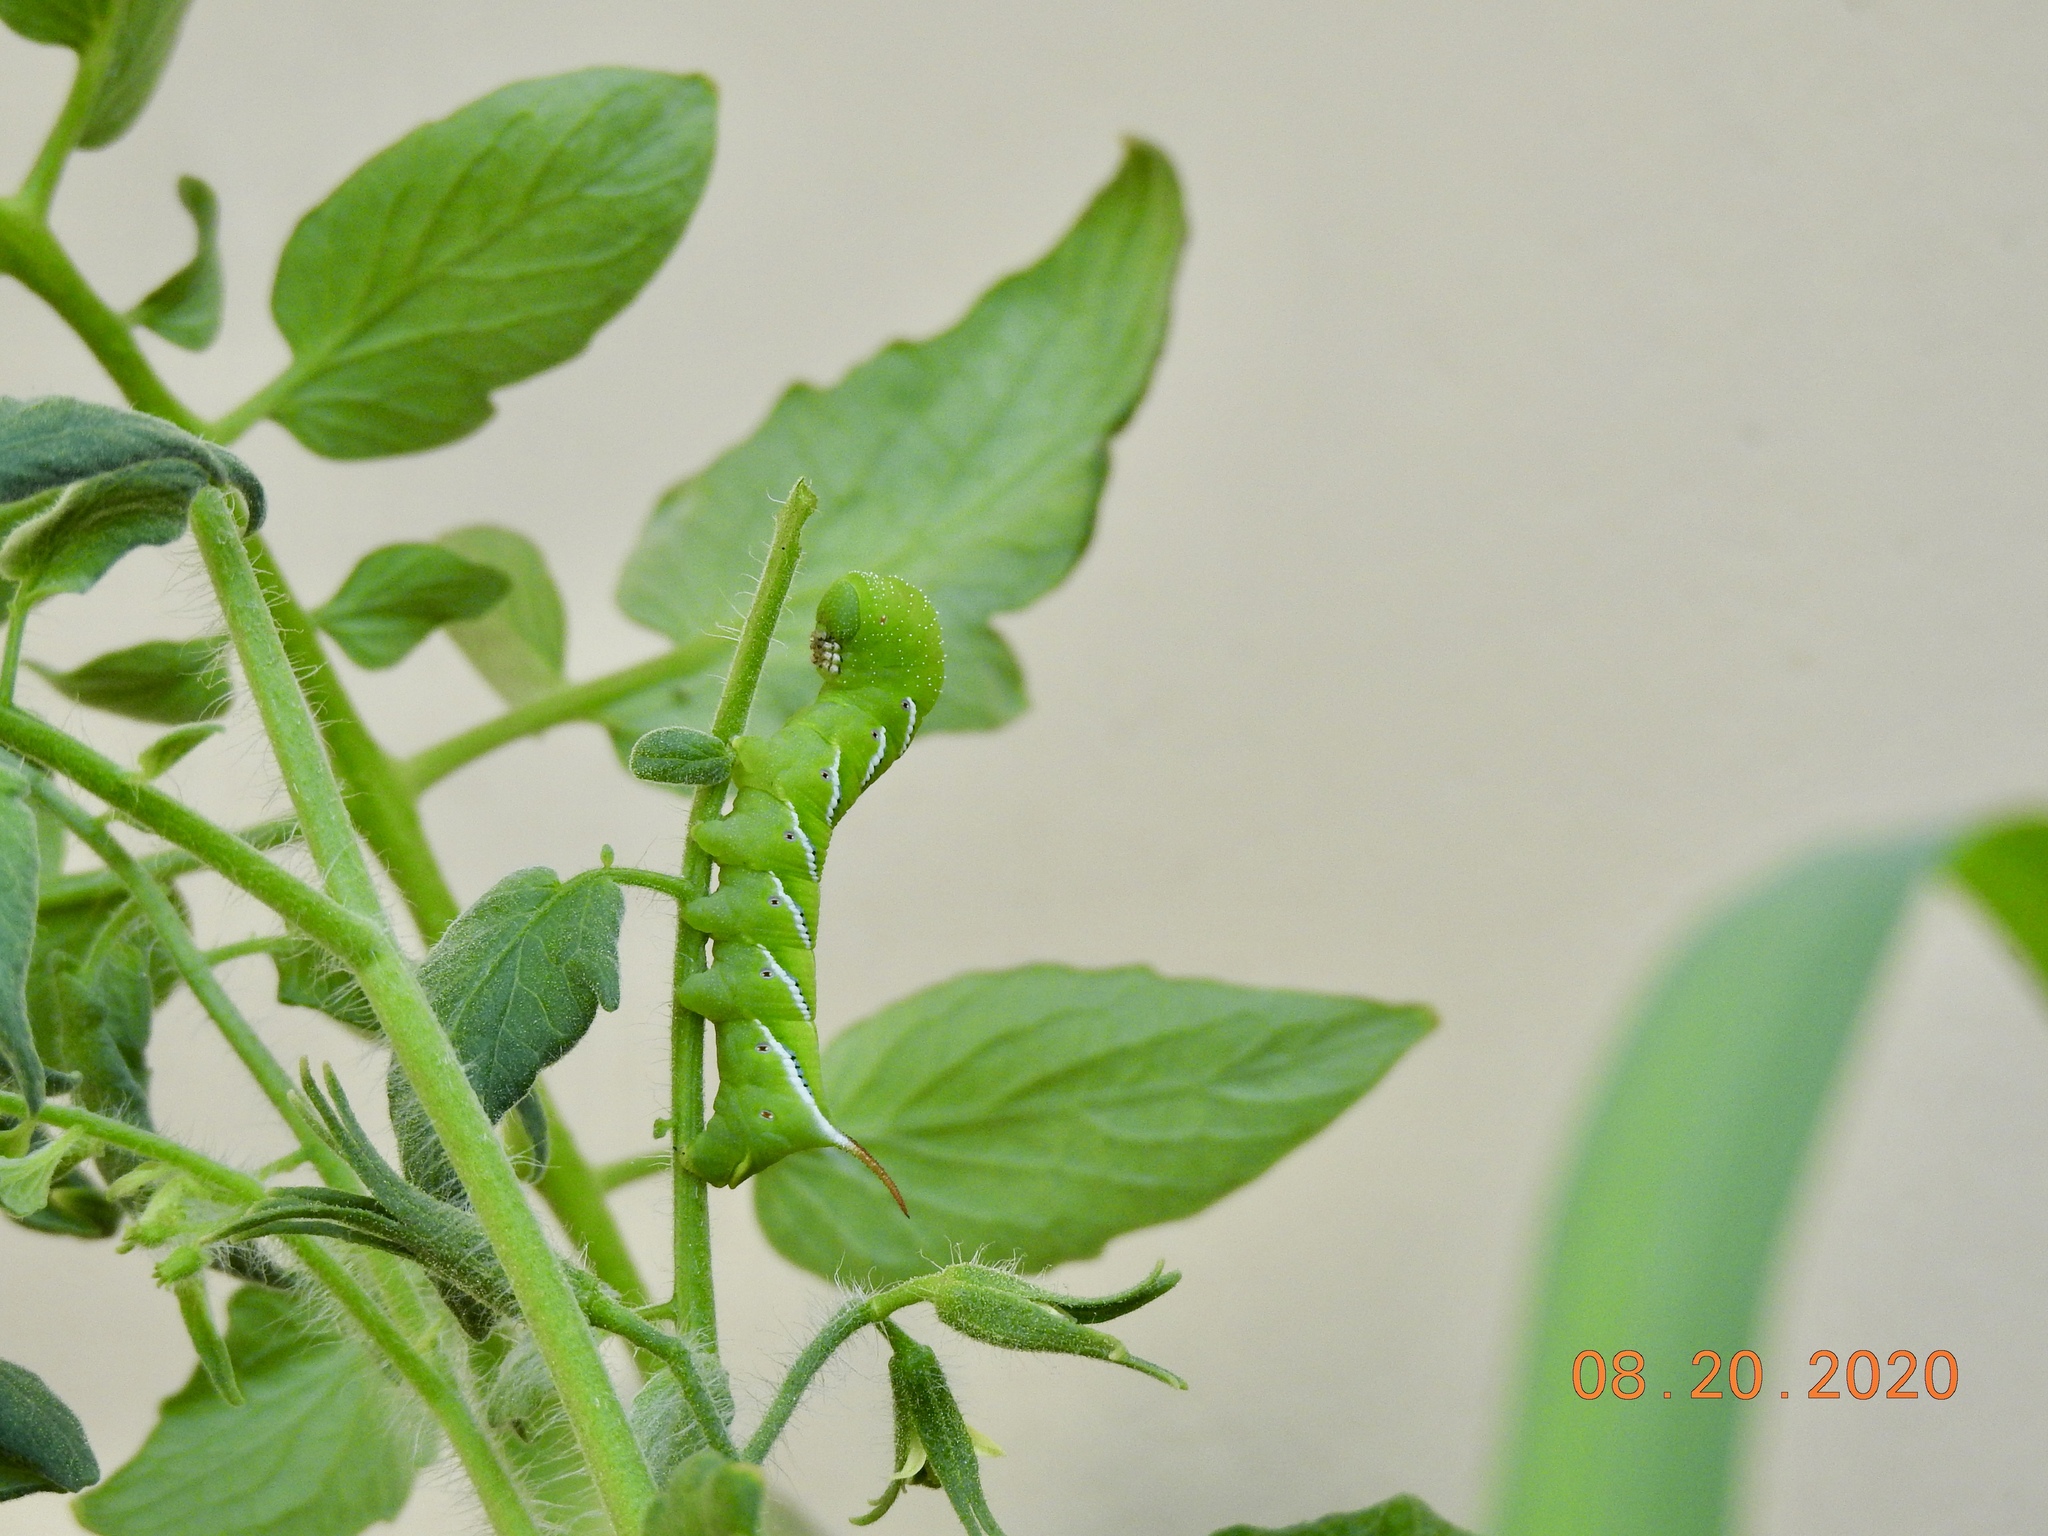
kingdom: Animalia
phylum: Arthropoda
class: Insecta
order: Lepidoptera
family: Sphingidae
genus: Manduca
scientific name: Manduca sexta
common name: Carolina sphinx
